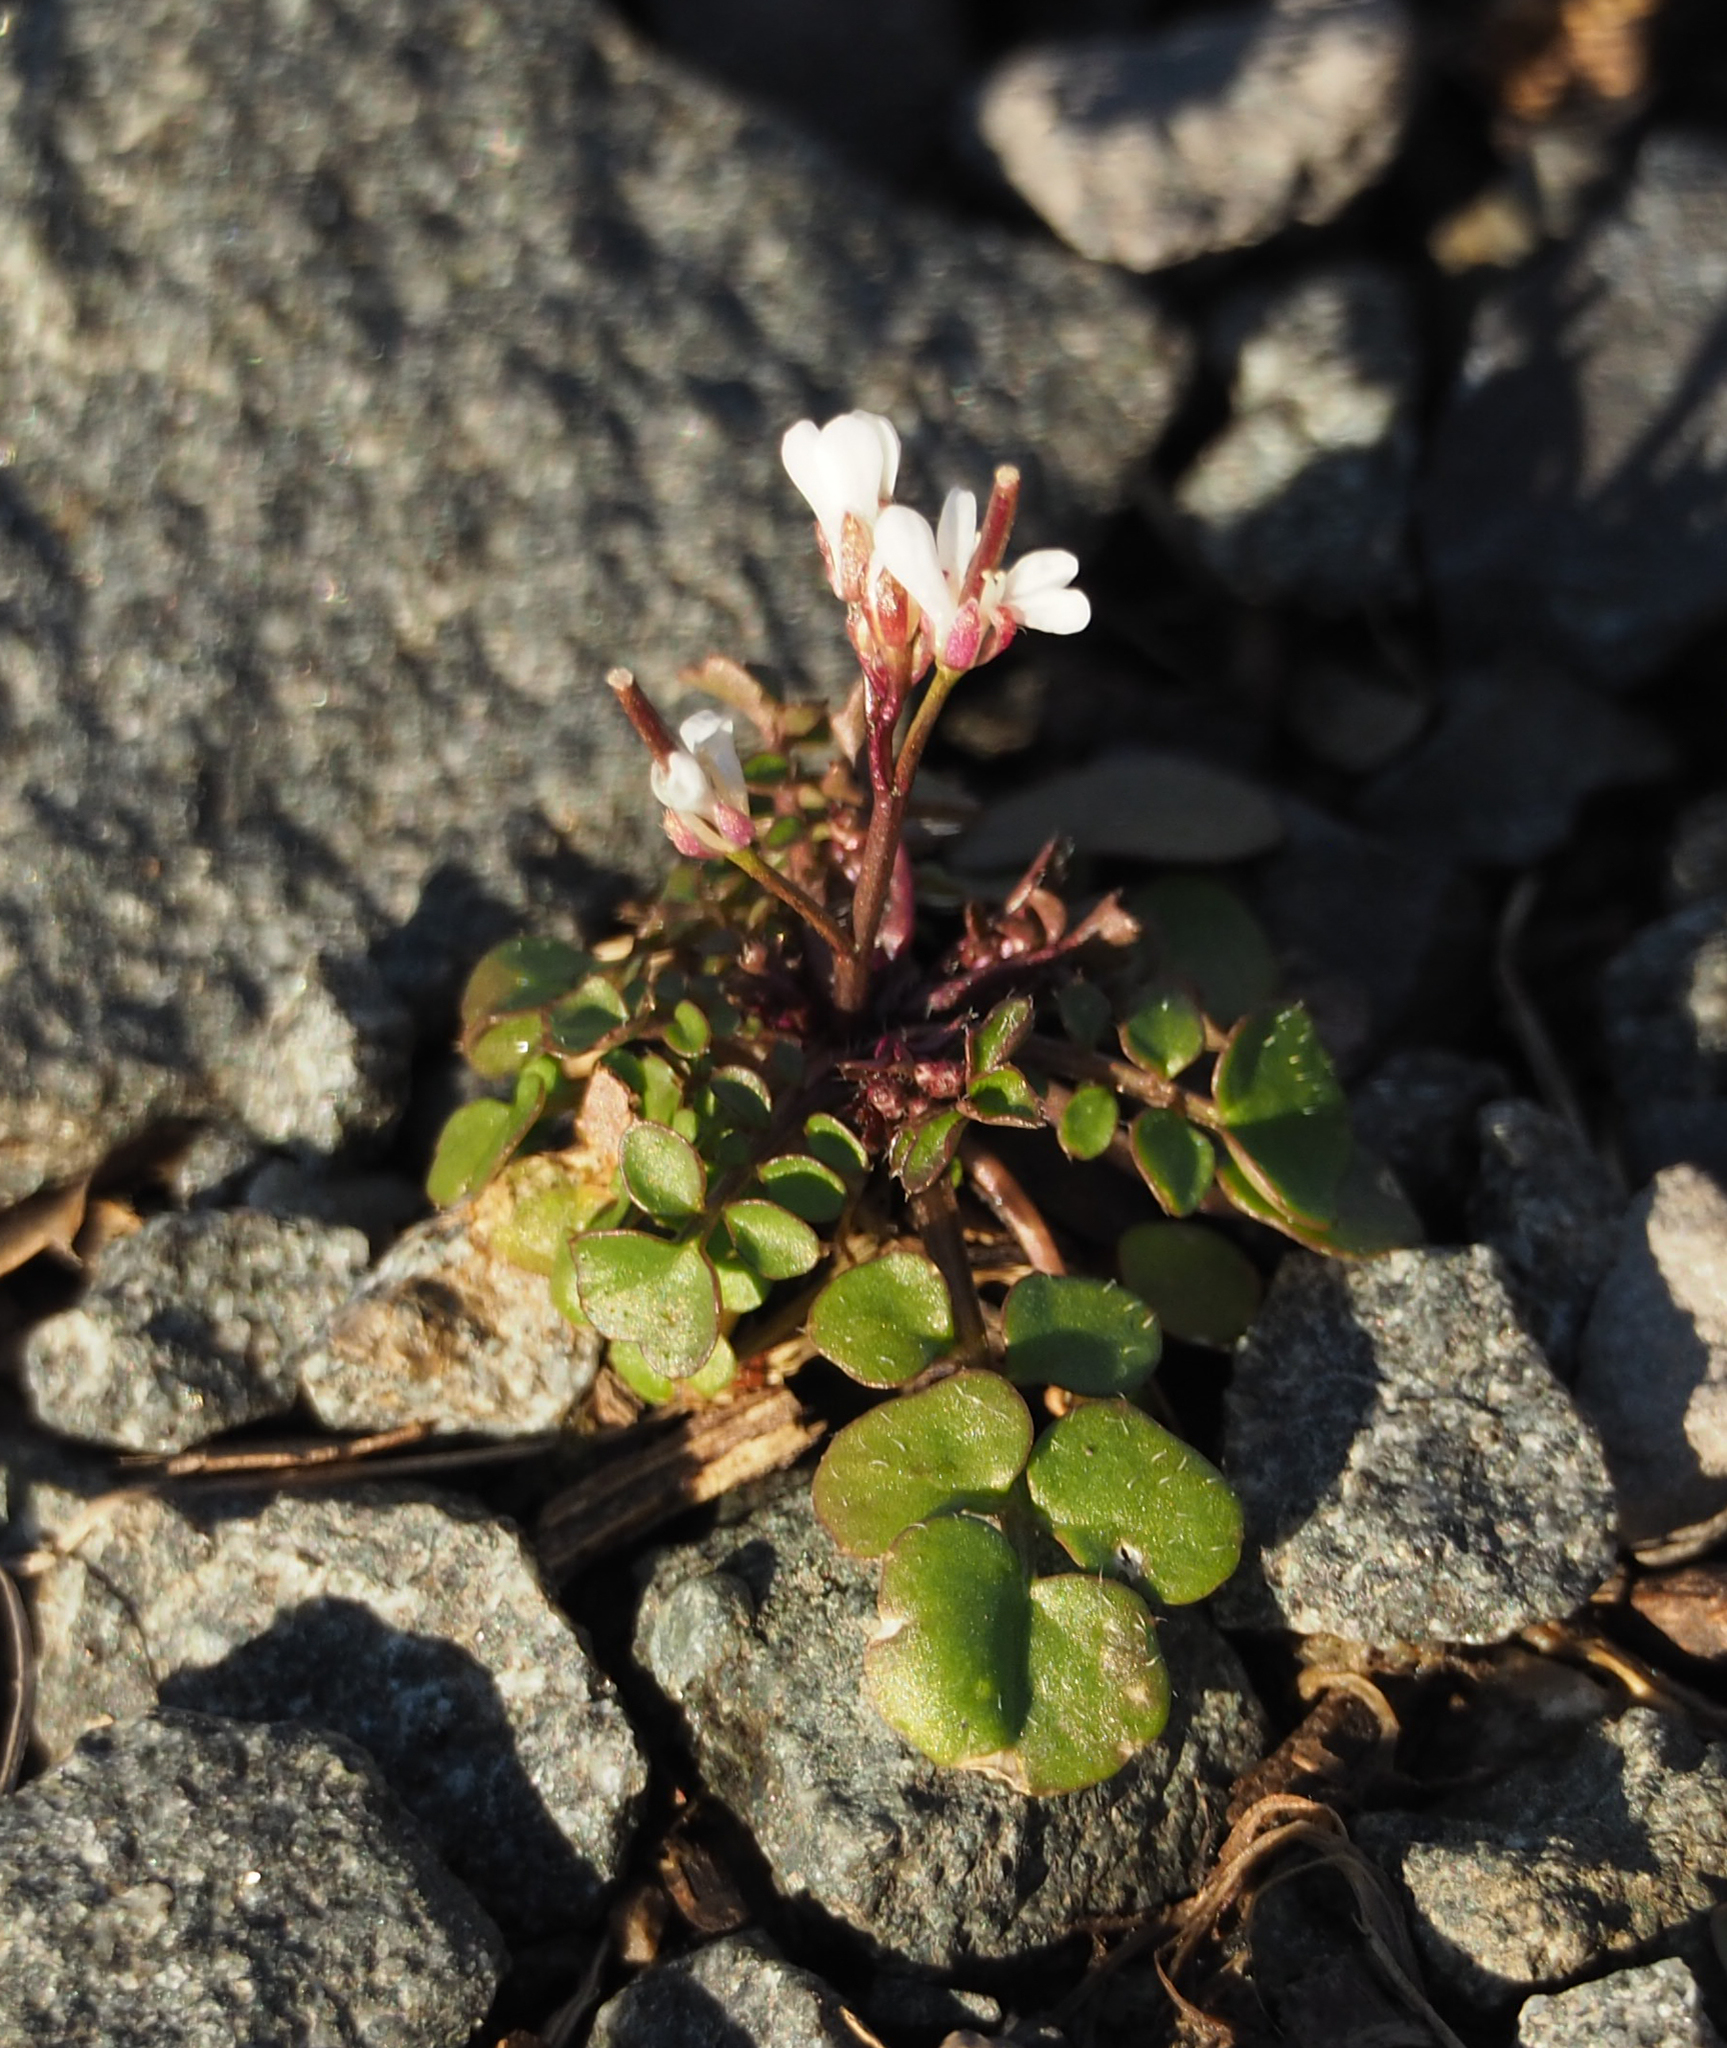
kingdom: Plantae
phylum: Tracheophyta
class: Magnoliopsida
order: Brassicales
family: Brassicaceae
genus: Cardamine
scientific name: Cardamine hirsuta
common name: Hairy bittercress
